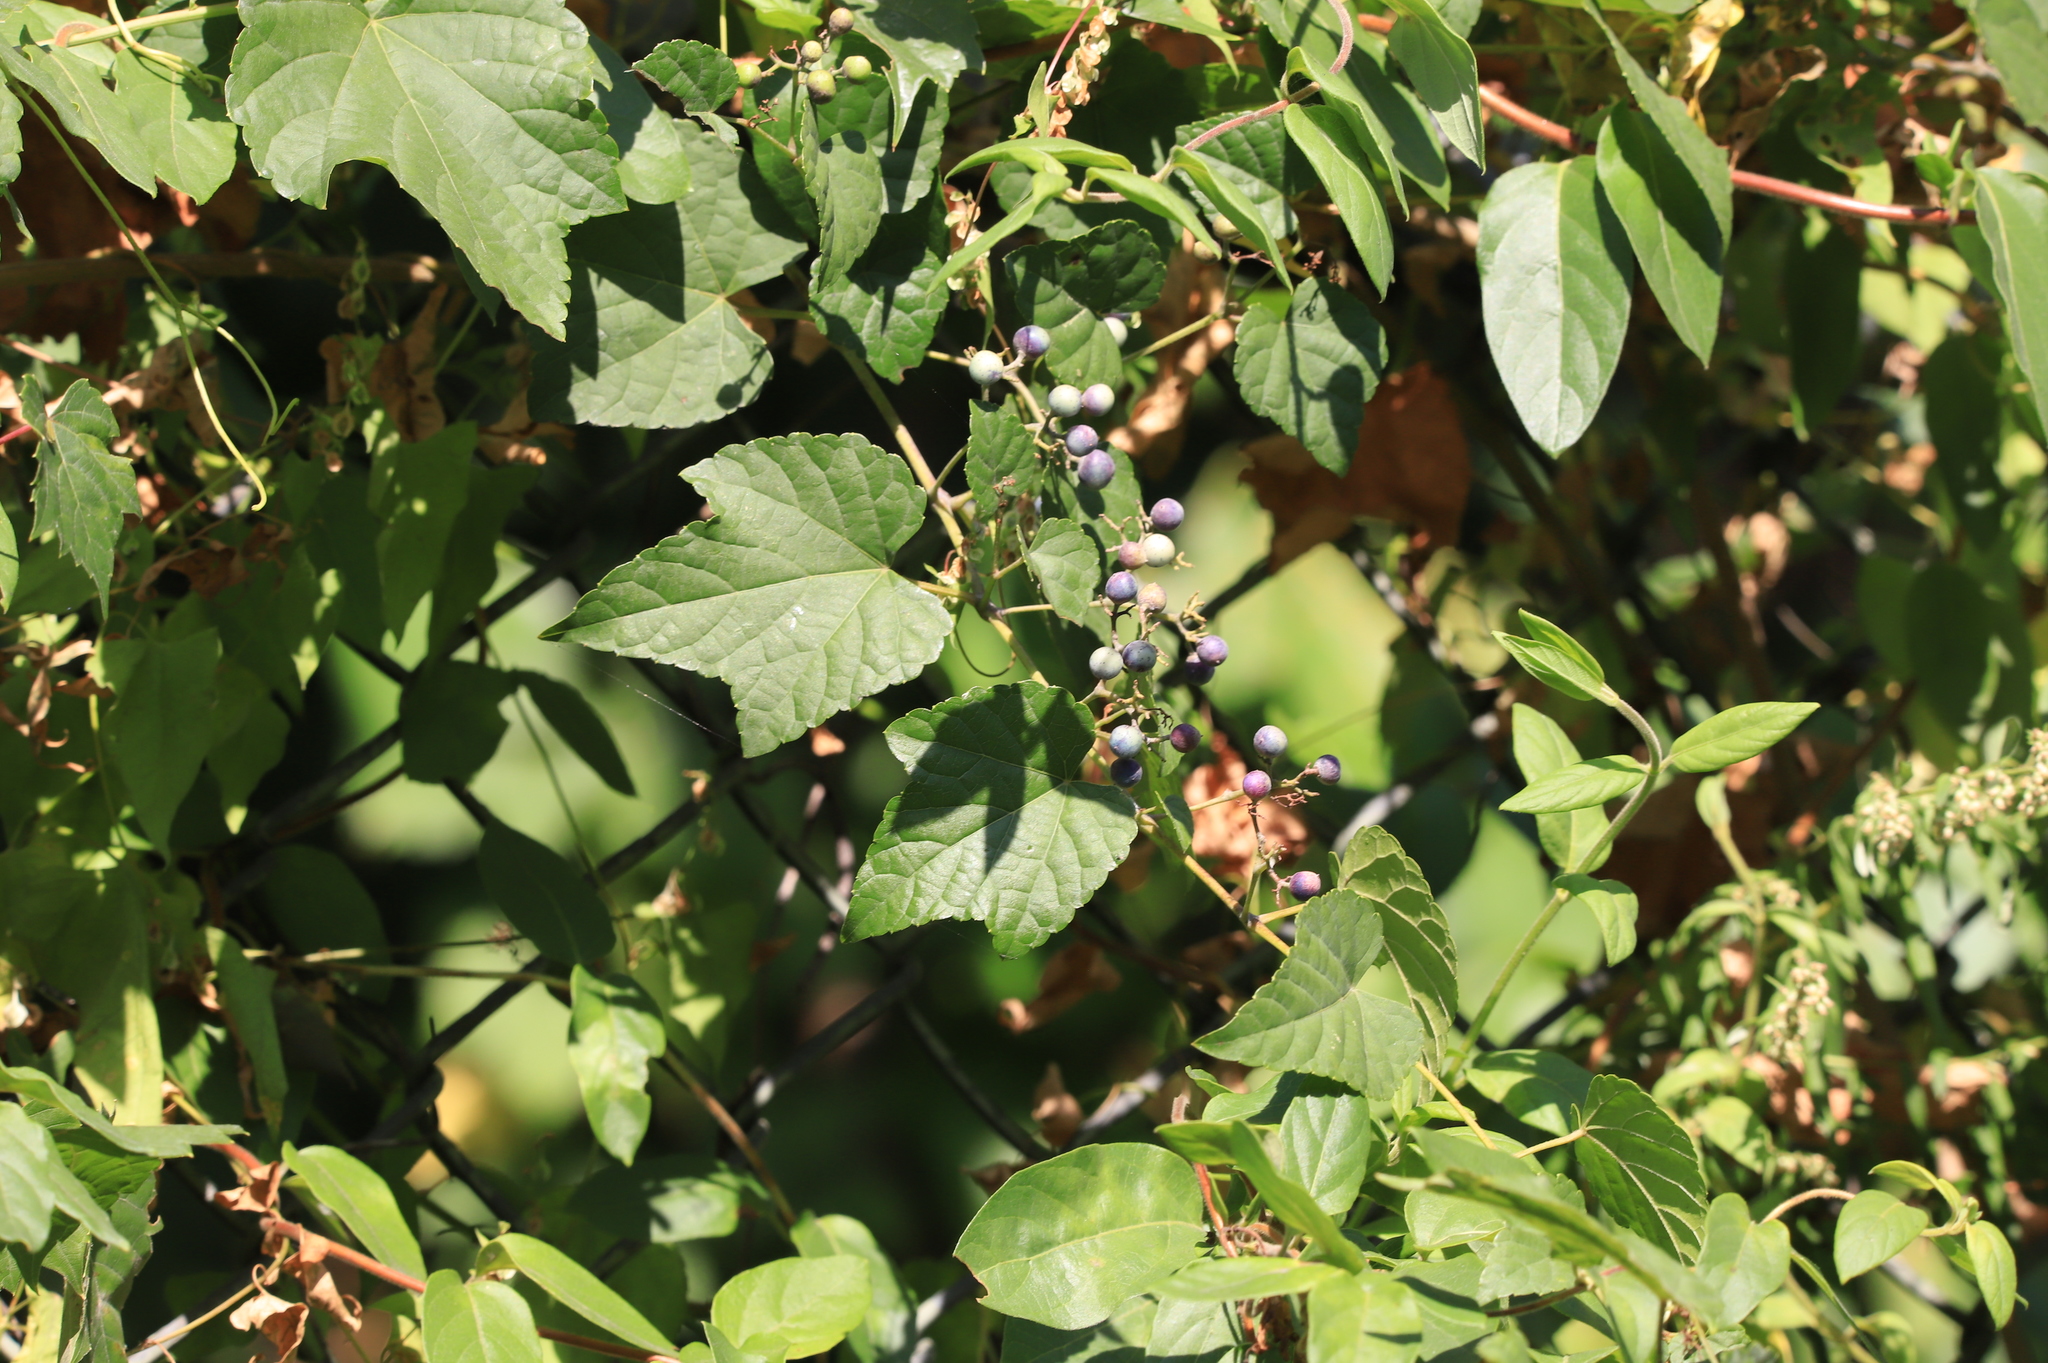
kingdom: Plantae
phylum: Tracheophyta
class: Magnoliopsida
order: Vitales
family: Vitaceae
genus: Ampelopsis
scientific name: Ampelopsis glandulosa
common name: Amur peppervine
